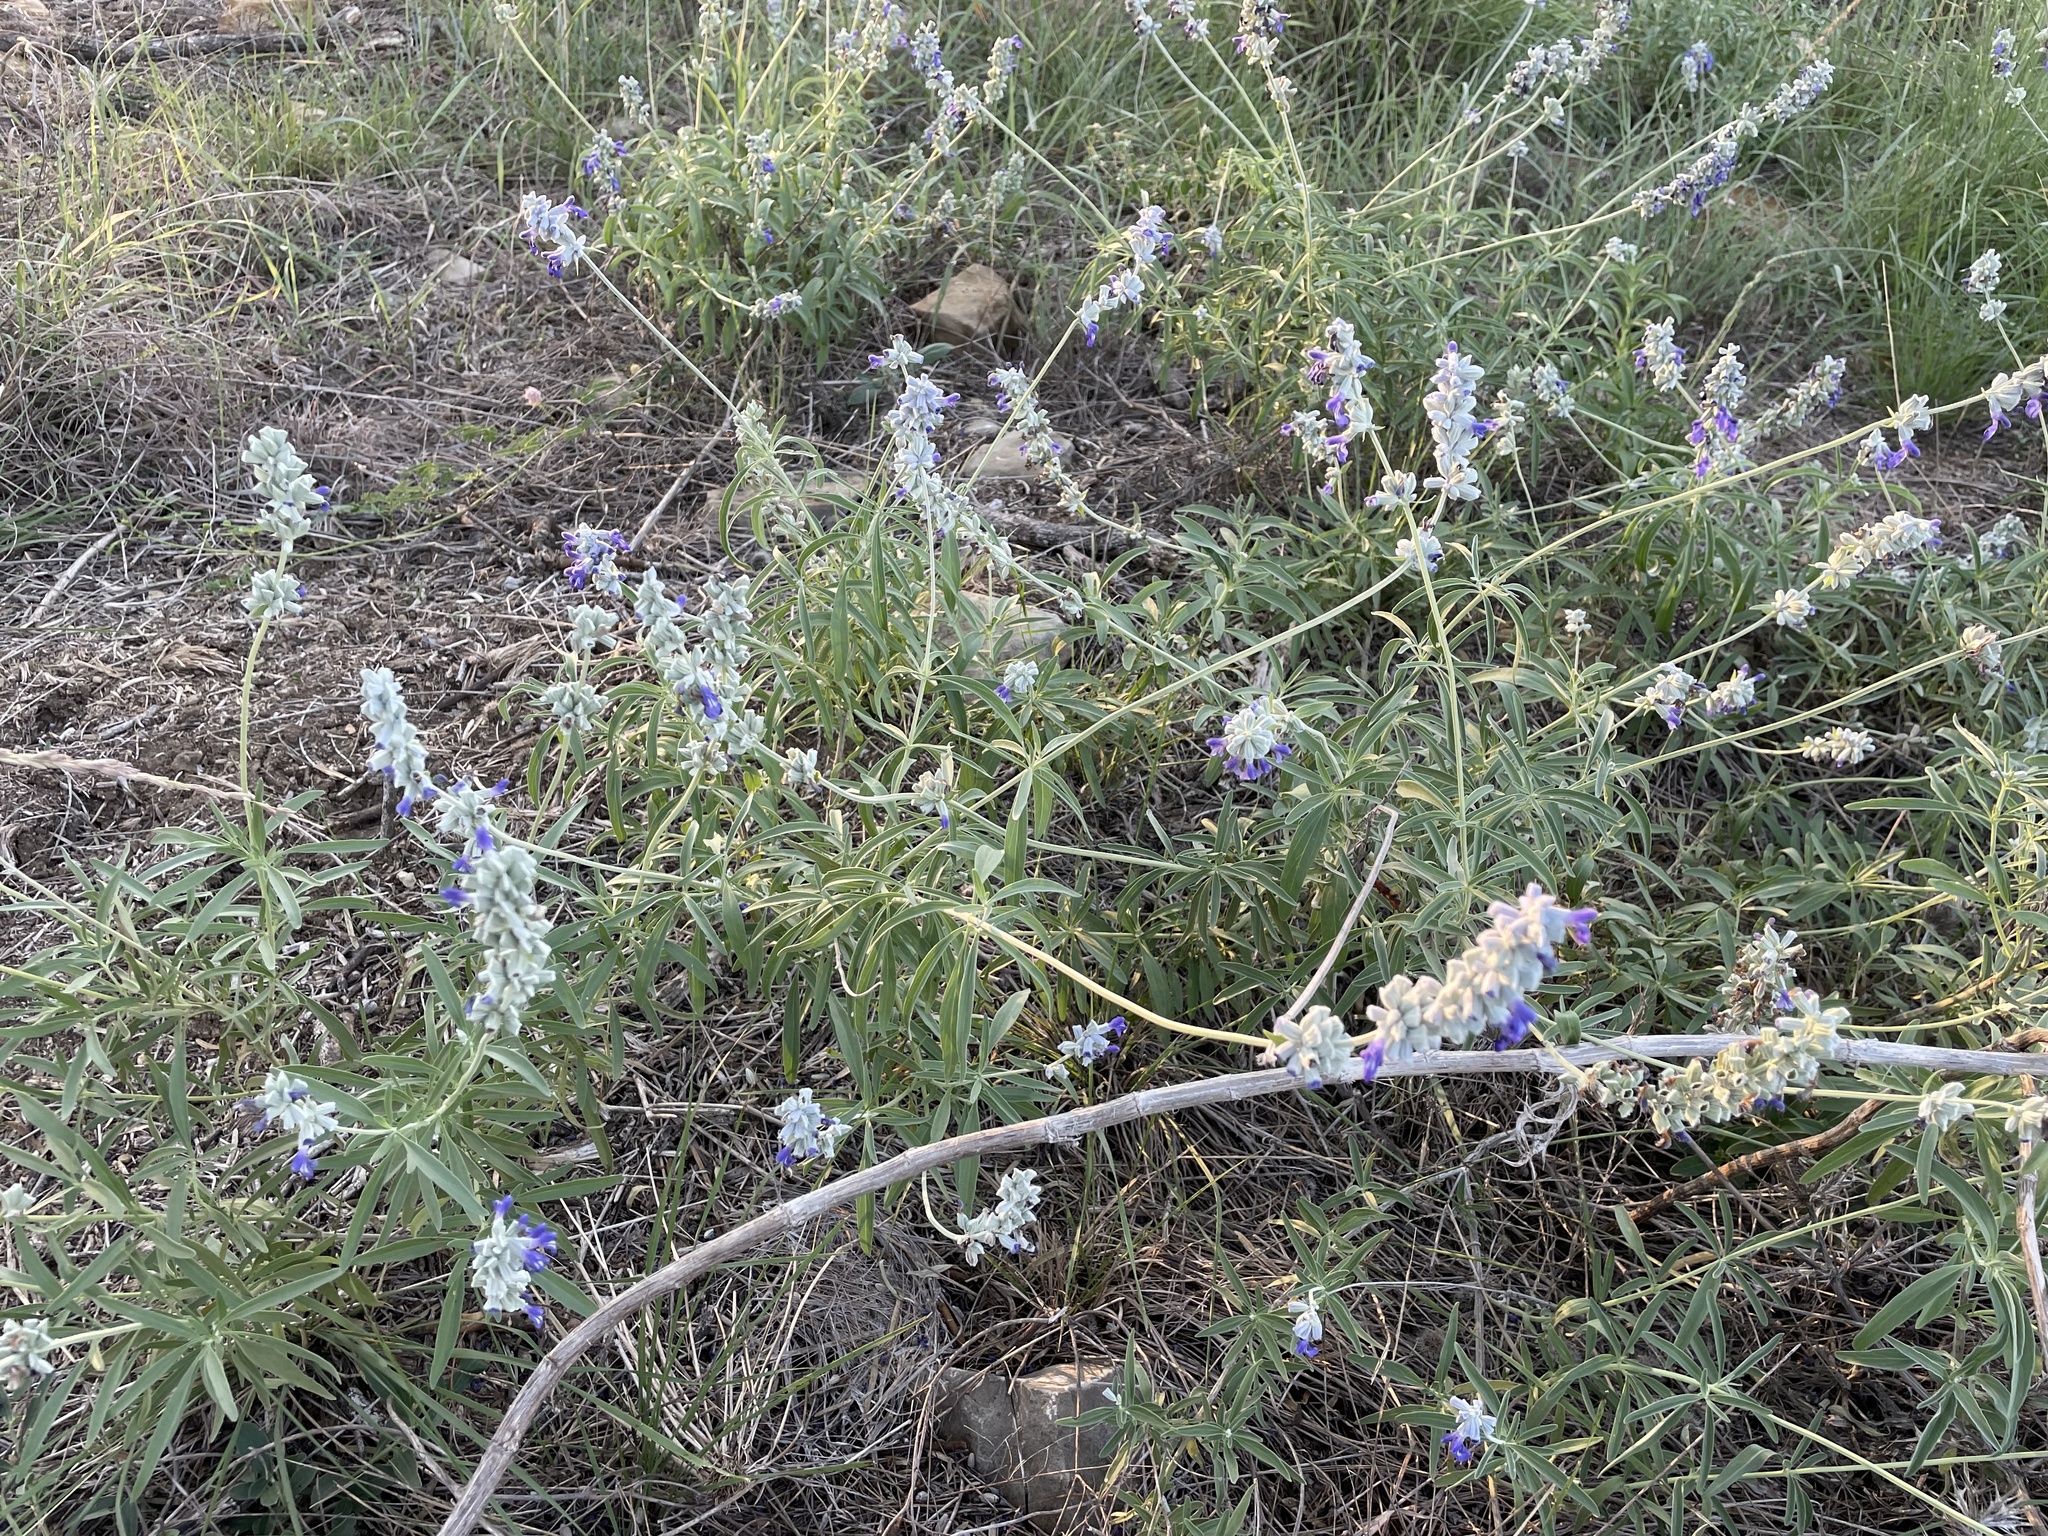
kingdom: Plantae
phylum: Tracheophyta
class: Magnoliopsida
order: Lamiales
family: Lamiaceae
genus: Salvia
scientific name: Salvia farinacea
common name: Mealy sage
